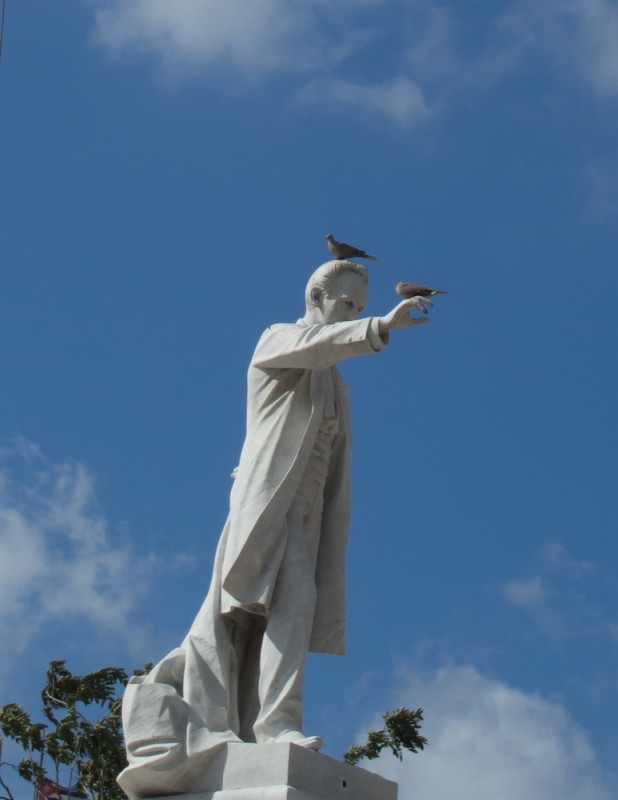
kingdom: Animalia
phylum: Chordata
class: Aves
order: Columbiformes
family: Columbidae
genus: Streptopelia
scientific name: Streptopelia decaocto
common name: Eurasian collared dove
